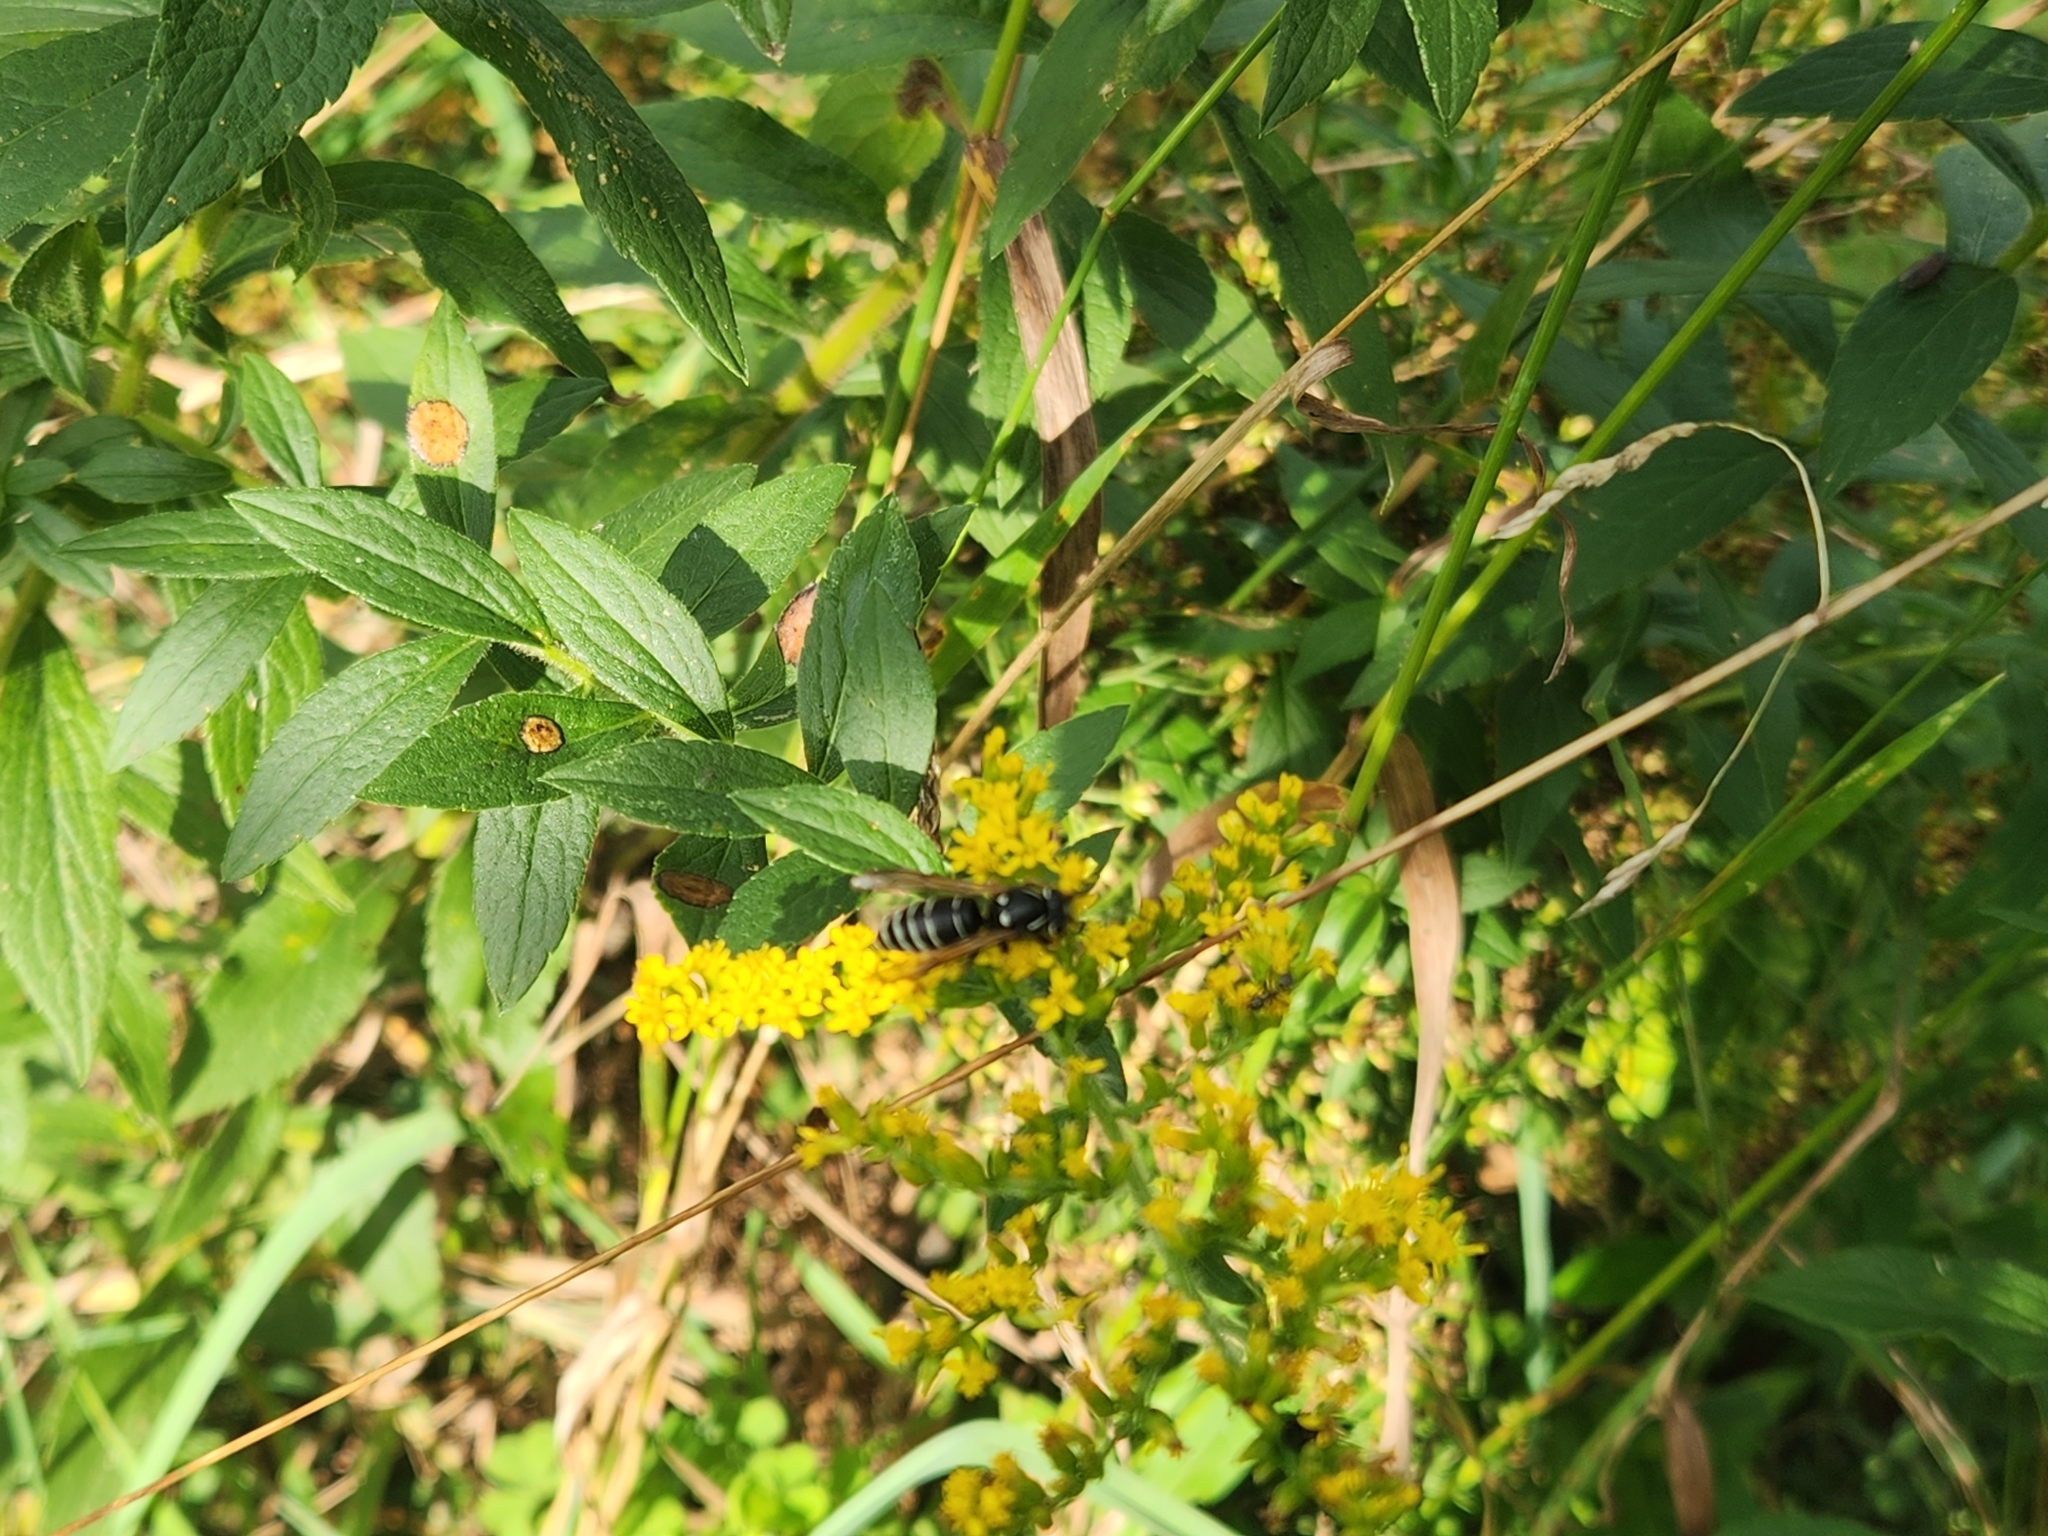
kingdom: Animalia
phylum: Arthropoda
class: Insecta
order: Hymenoptera
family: Vespidae
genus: Vespula
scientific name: Vespula consobrina
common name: Blackjacket
